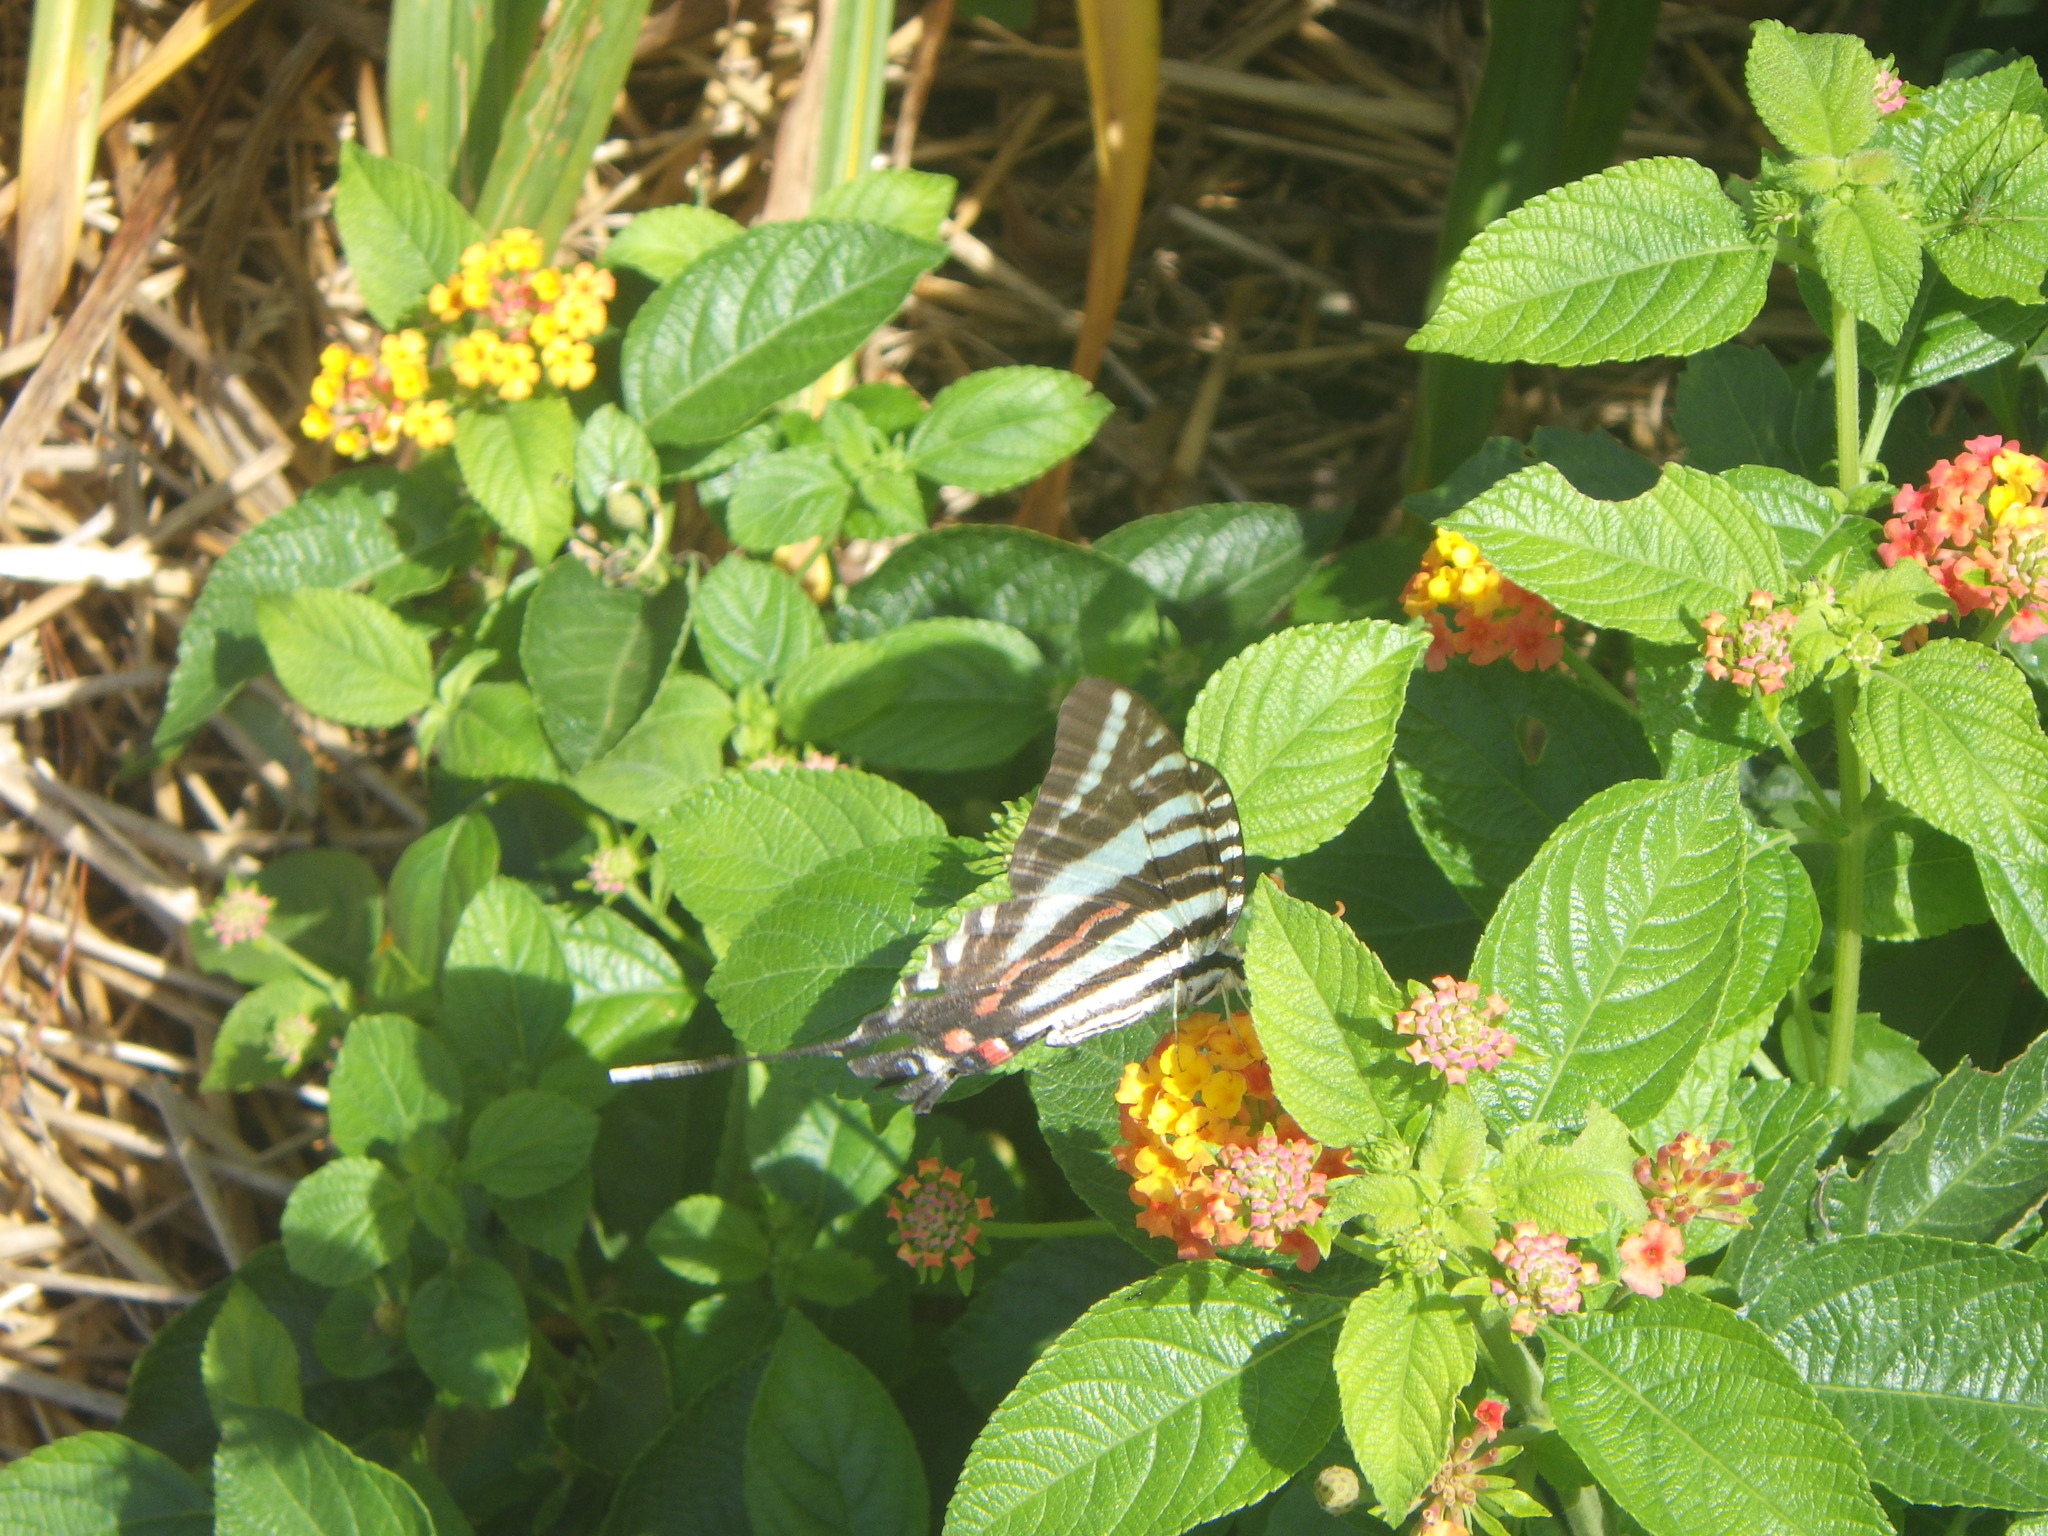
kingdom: Animalia
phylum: Arthropoda
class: Insecta
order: Lepidoptera
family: Papilionidae
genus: Protographium
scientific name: Protographium marcellus
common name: Zebra swallowtail
